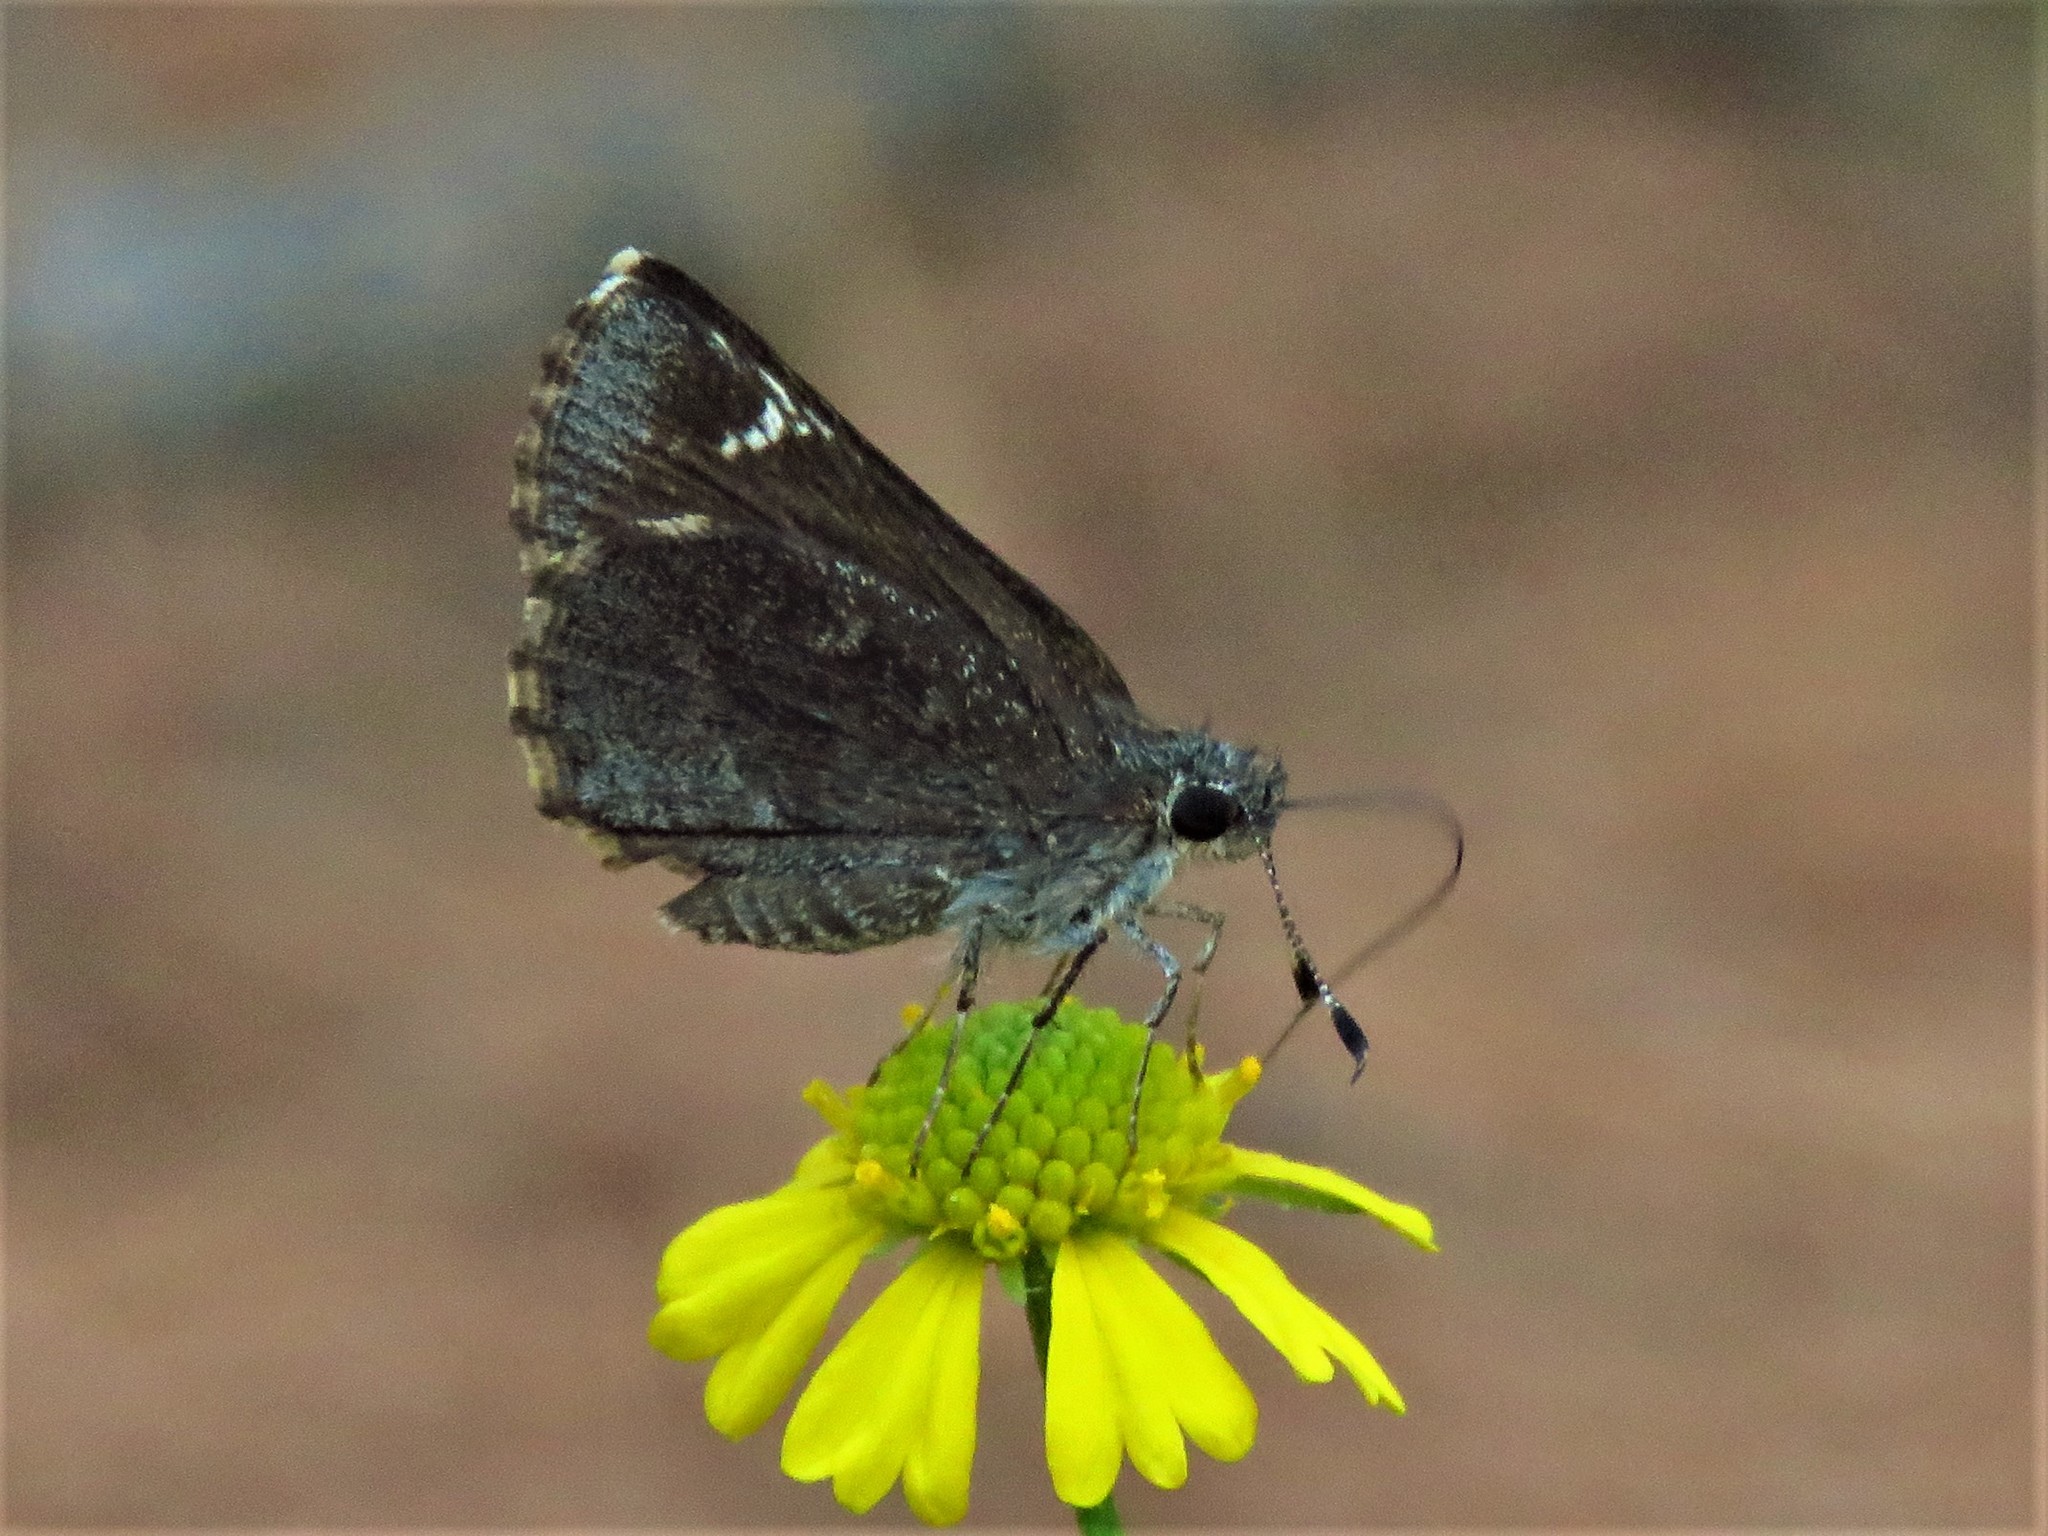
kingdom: Animalia
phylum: Arthropoda
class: Insecta
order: Lepidoptera
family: Hesperiidae
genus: Mastor
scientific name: Mastor vialis
